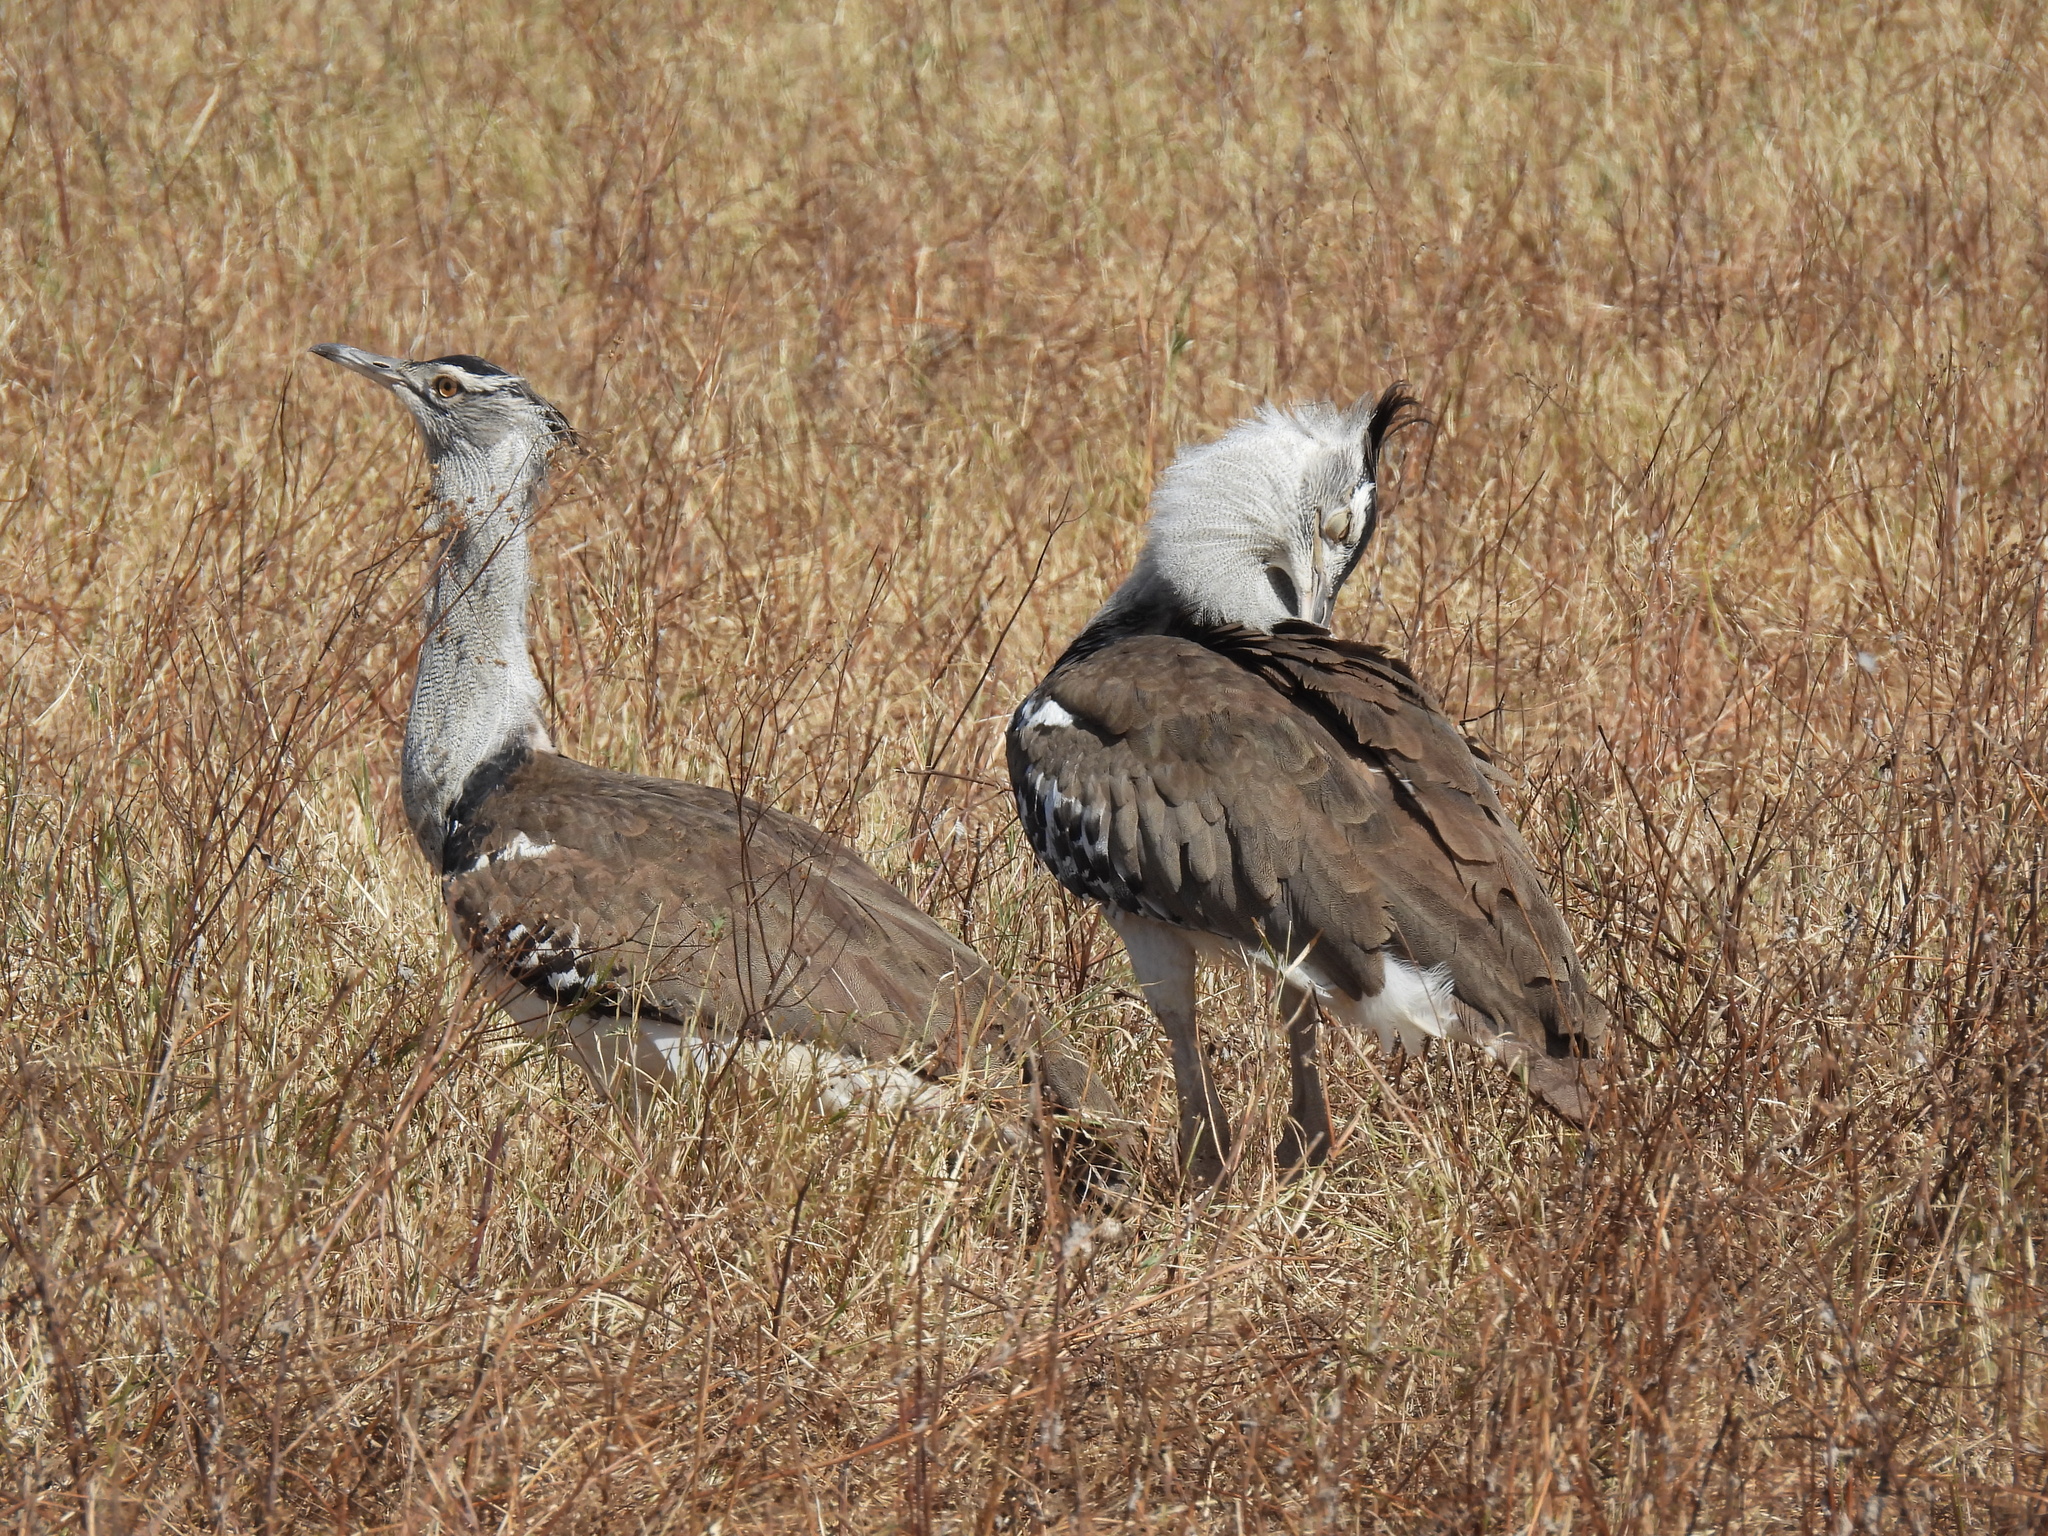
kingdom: Animalia
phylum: Chordata
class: Aves
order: Otidiformes
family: Otididae
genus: Ardeotis
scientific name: Ardeotis kori
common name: Kori bustard
